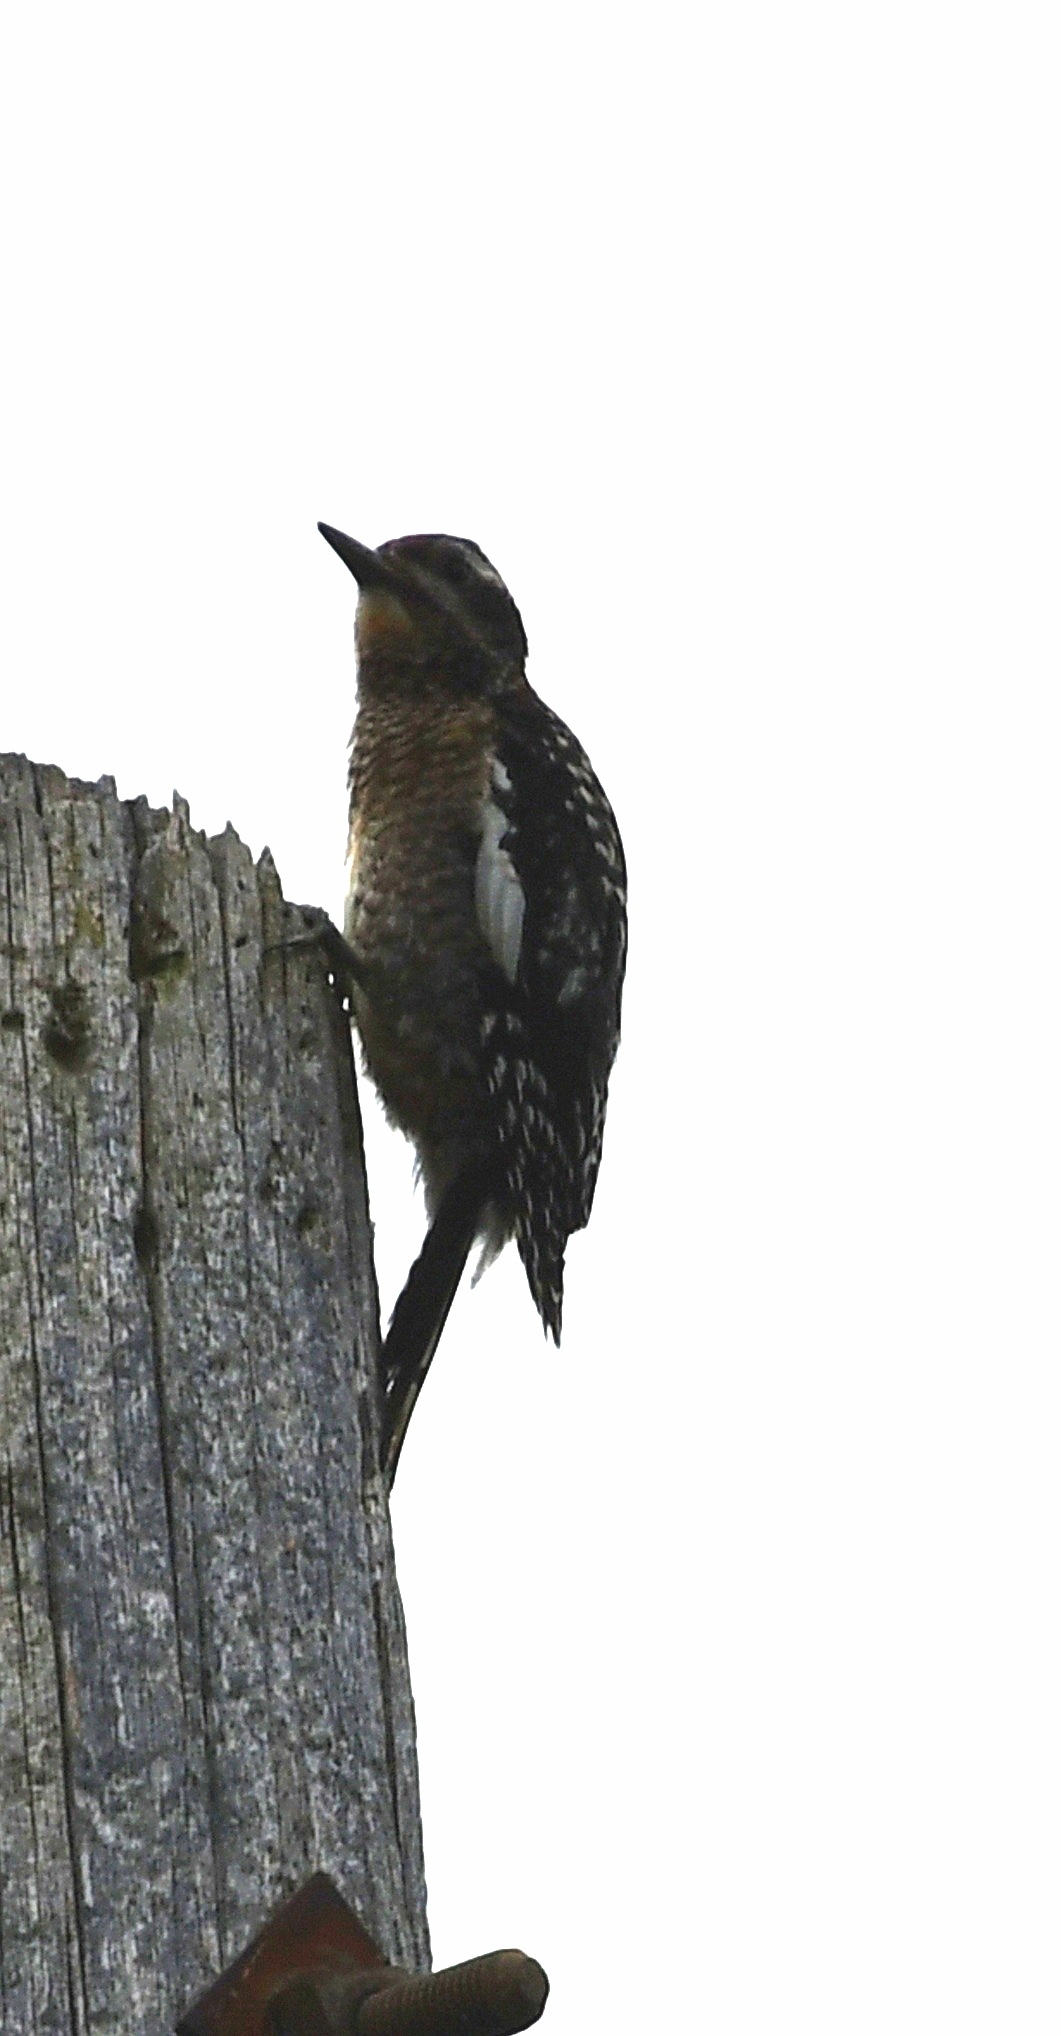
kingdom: Animalia
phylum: Chordata
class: Aves
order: Piciformes
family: Picidae
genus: Sphyrapicus
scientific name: Sphyrapicus varius
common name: Yellow-bellied sapsucker
